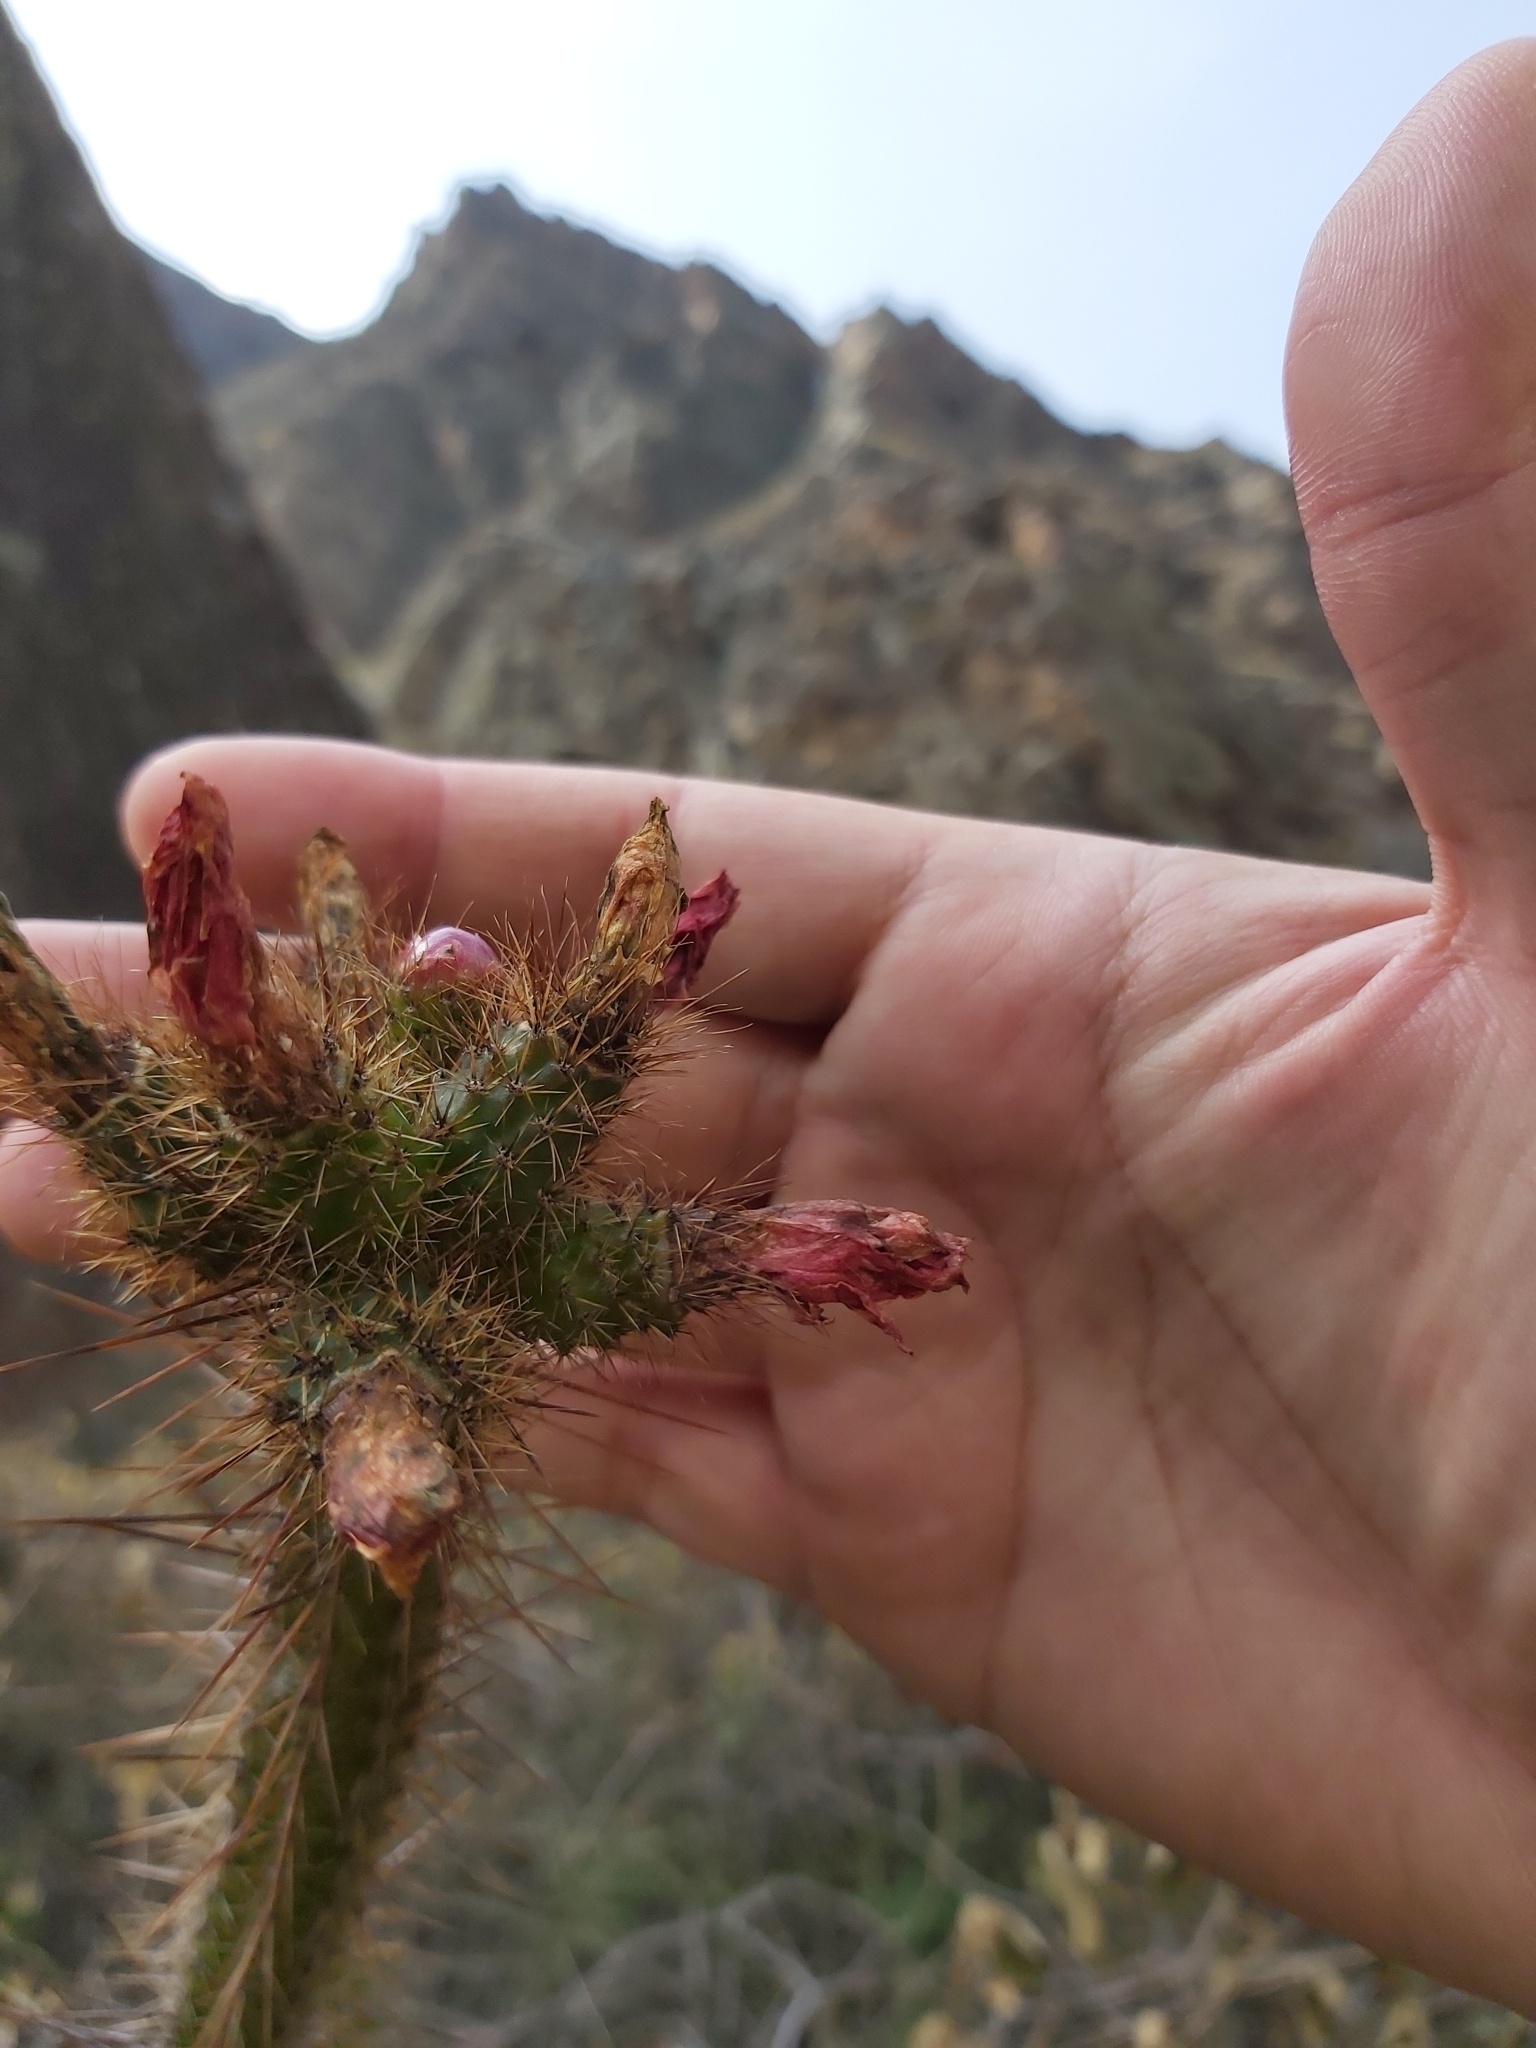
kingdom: Plantae
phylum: Tracheophyta
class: Magnoliopsida
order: Caryophyllales
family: Cactaceae
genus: Corryocactus
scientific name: Corryocactus erectus
